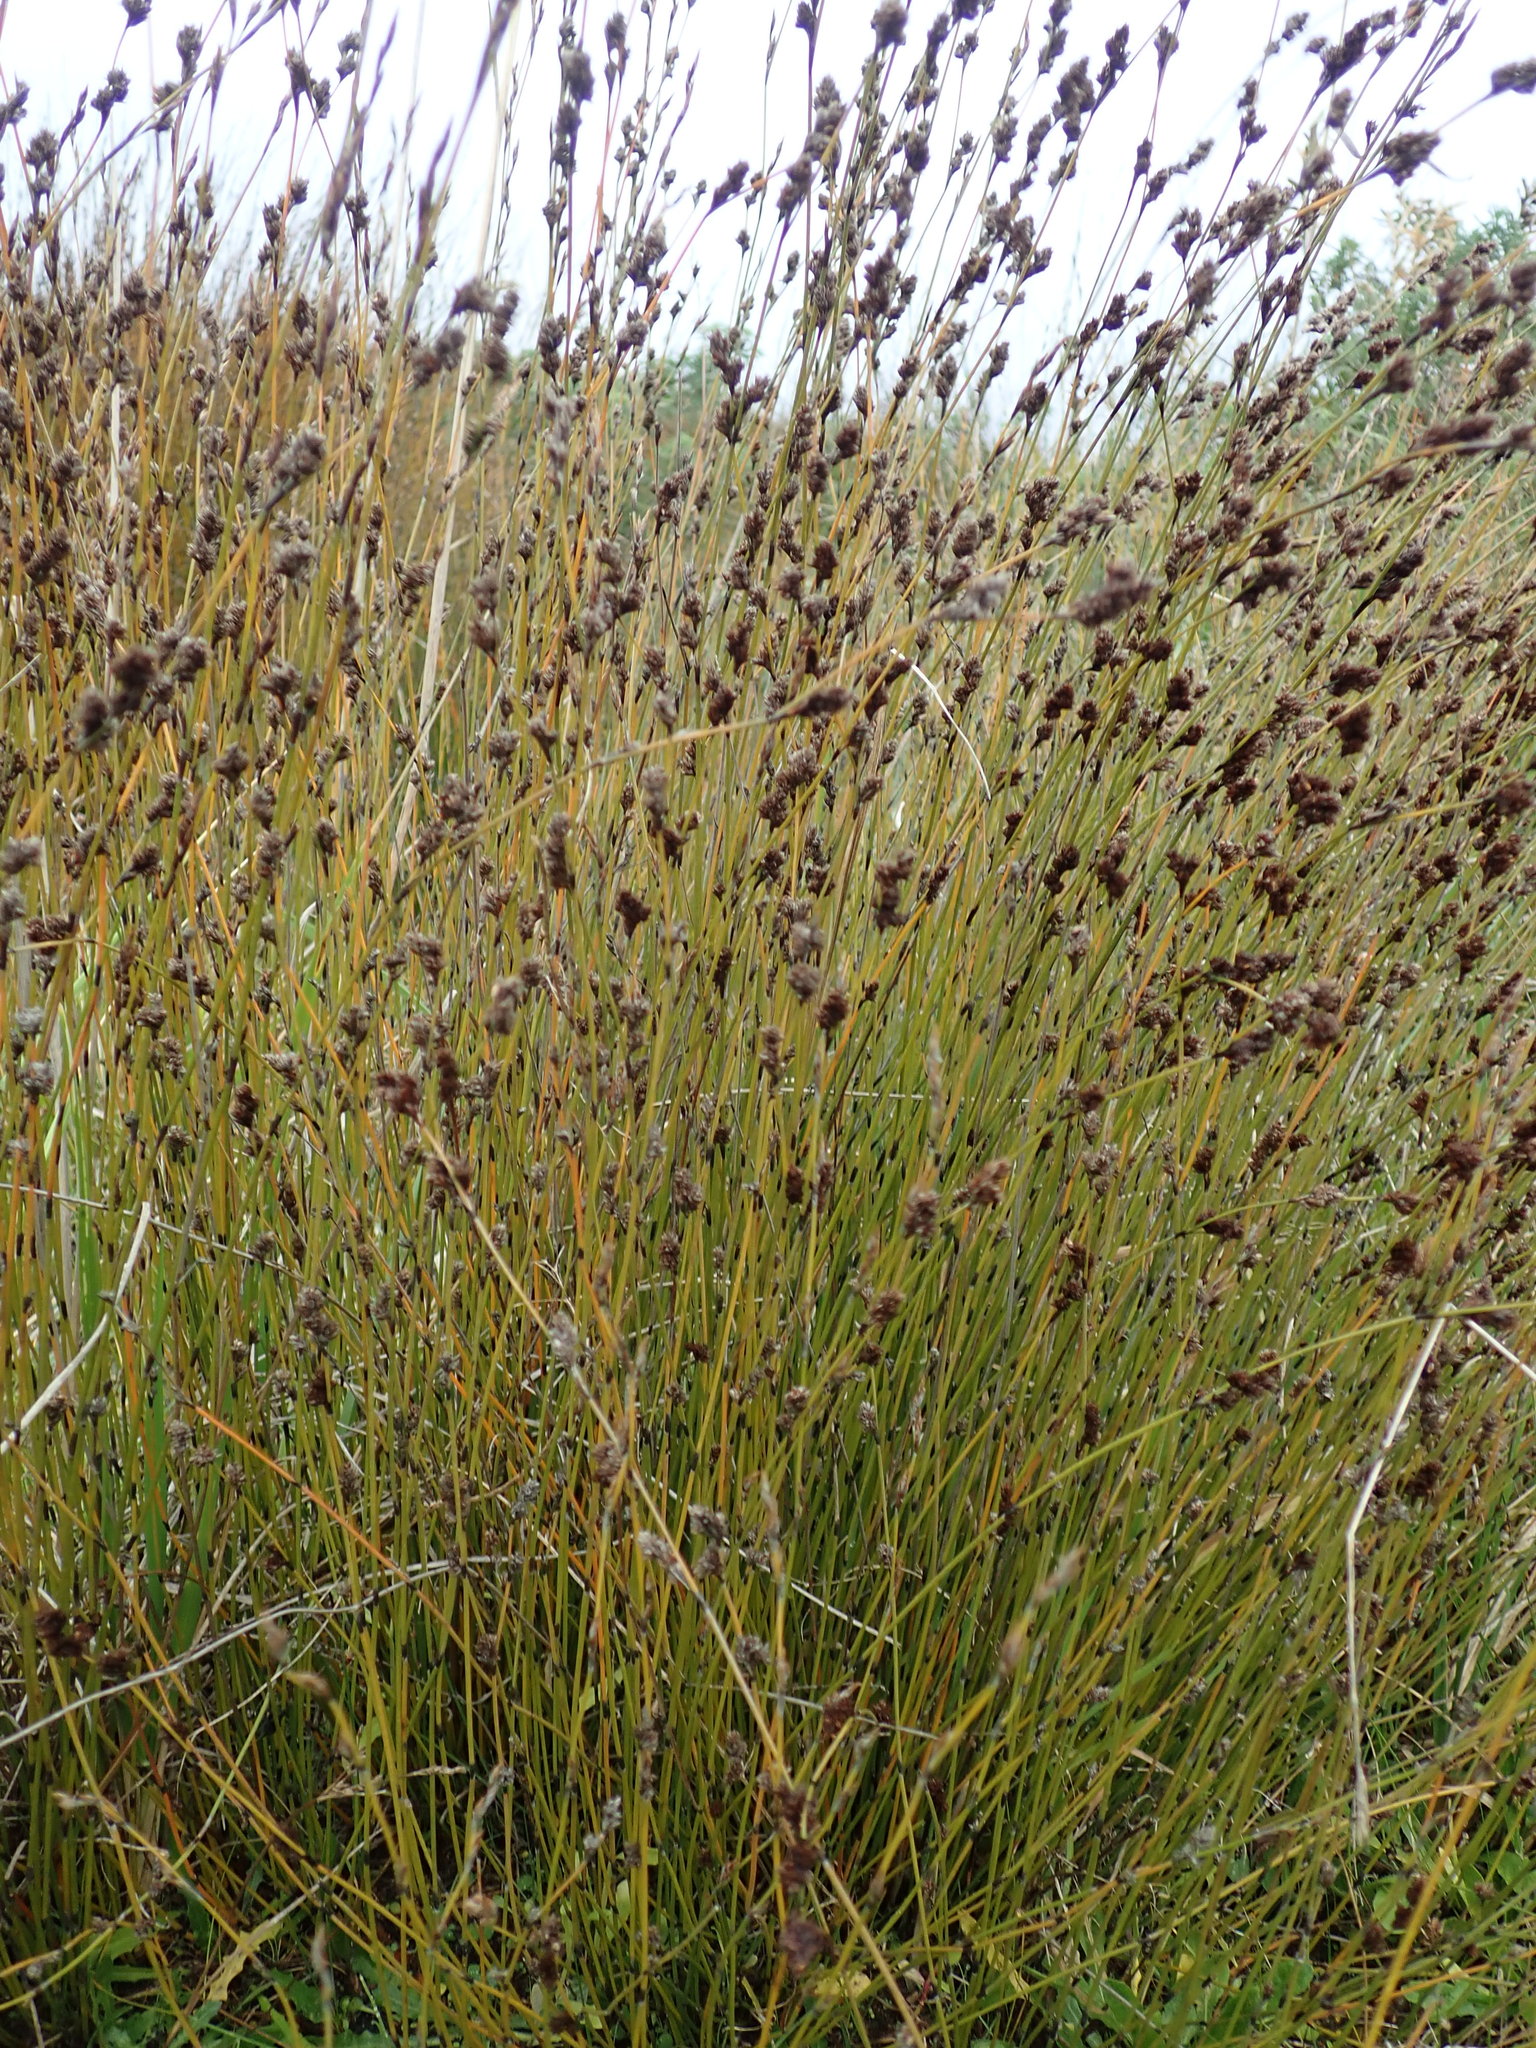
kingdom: Plantae
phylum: Tracheophyta
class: Liliopsida
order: Poales
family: Restionaceae
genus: Apodasmia
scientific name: Apodasmia similis
